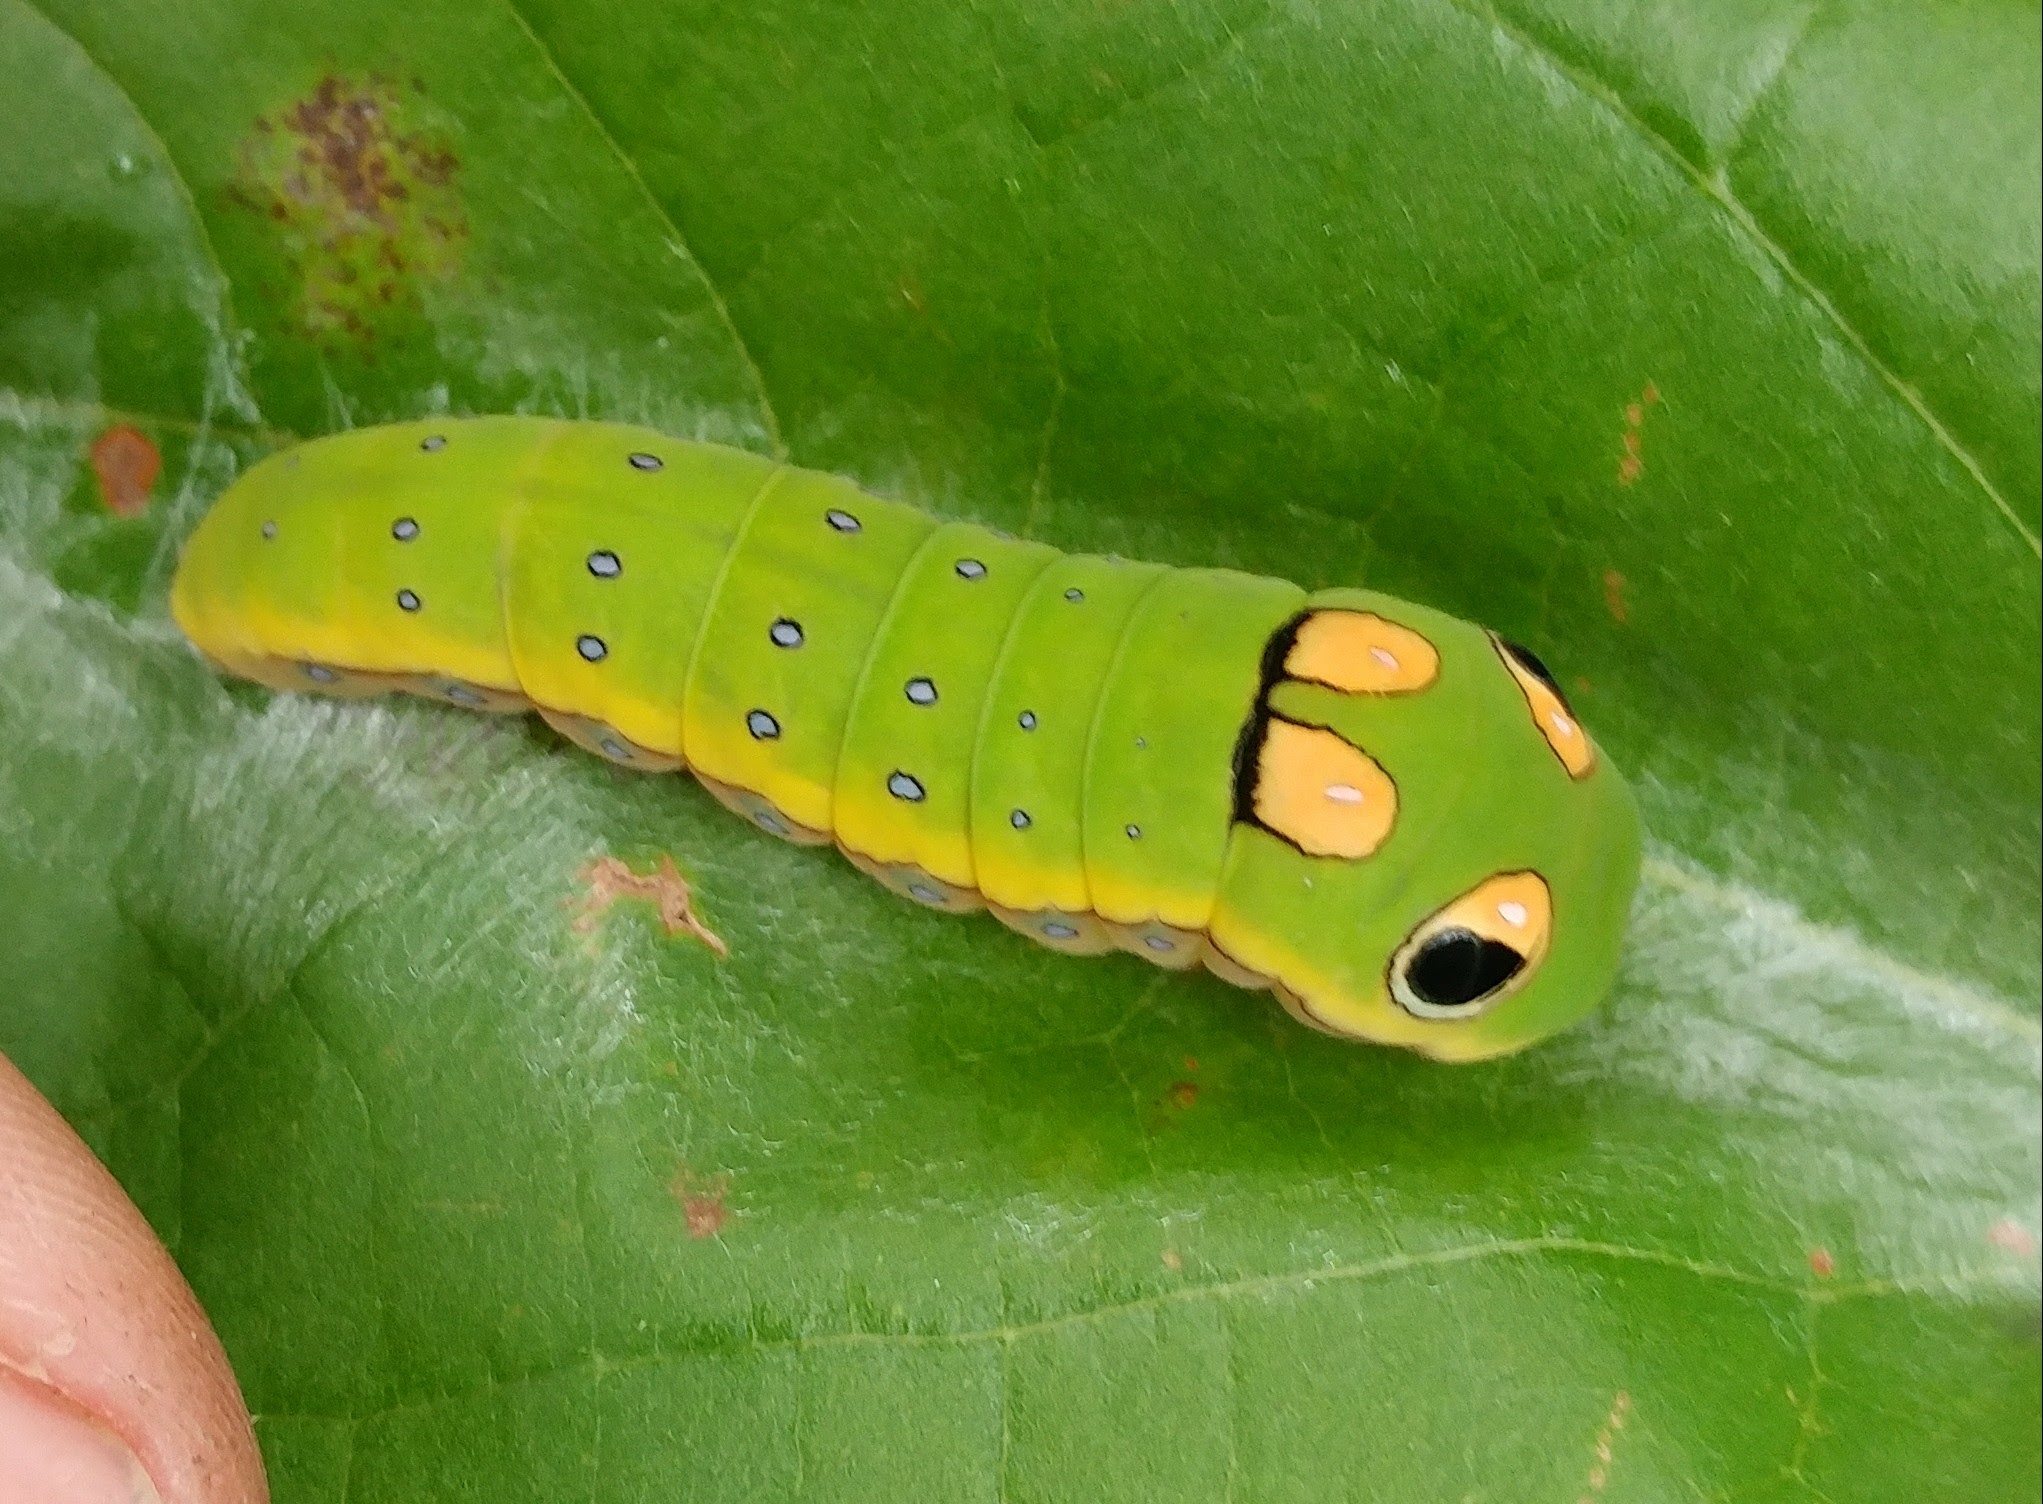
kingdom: Animalia
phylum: Arthropoda
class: Insecta
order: Lepidoptera
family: Papilionidae
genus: Papilio
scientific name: Papilio troilus
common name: Spicebush swallowtail
